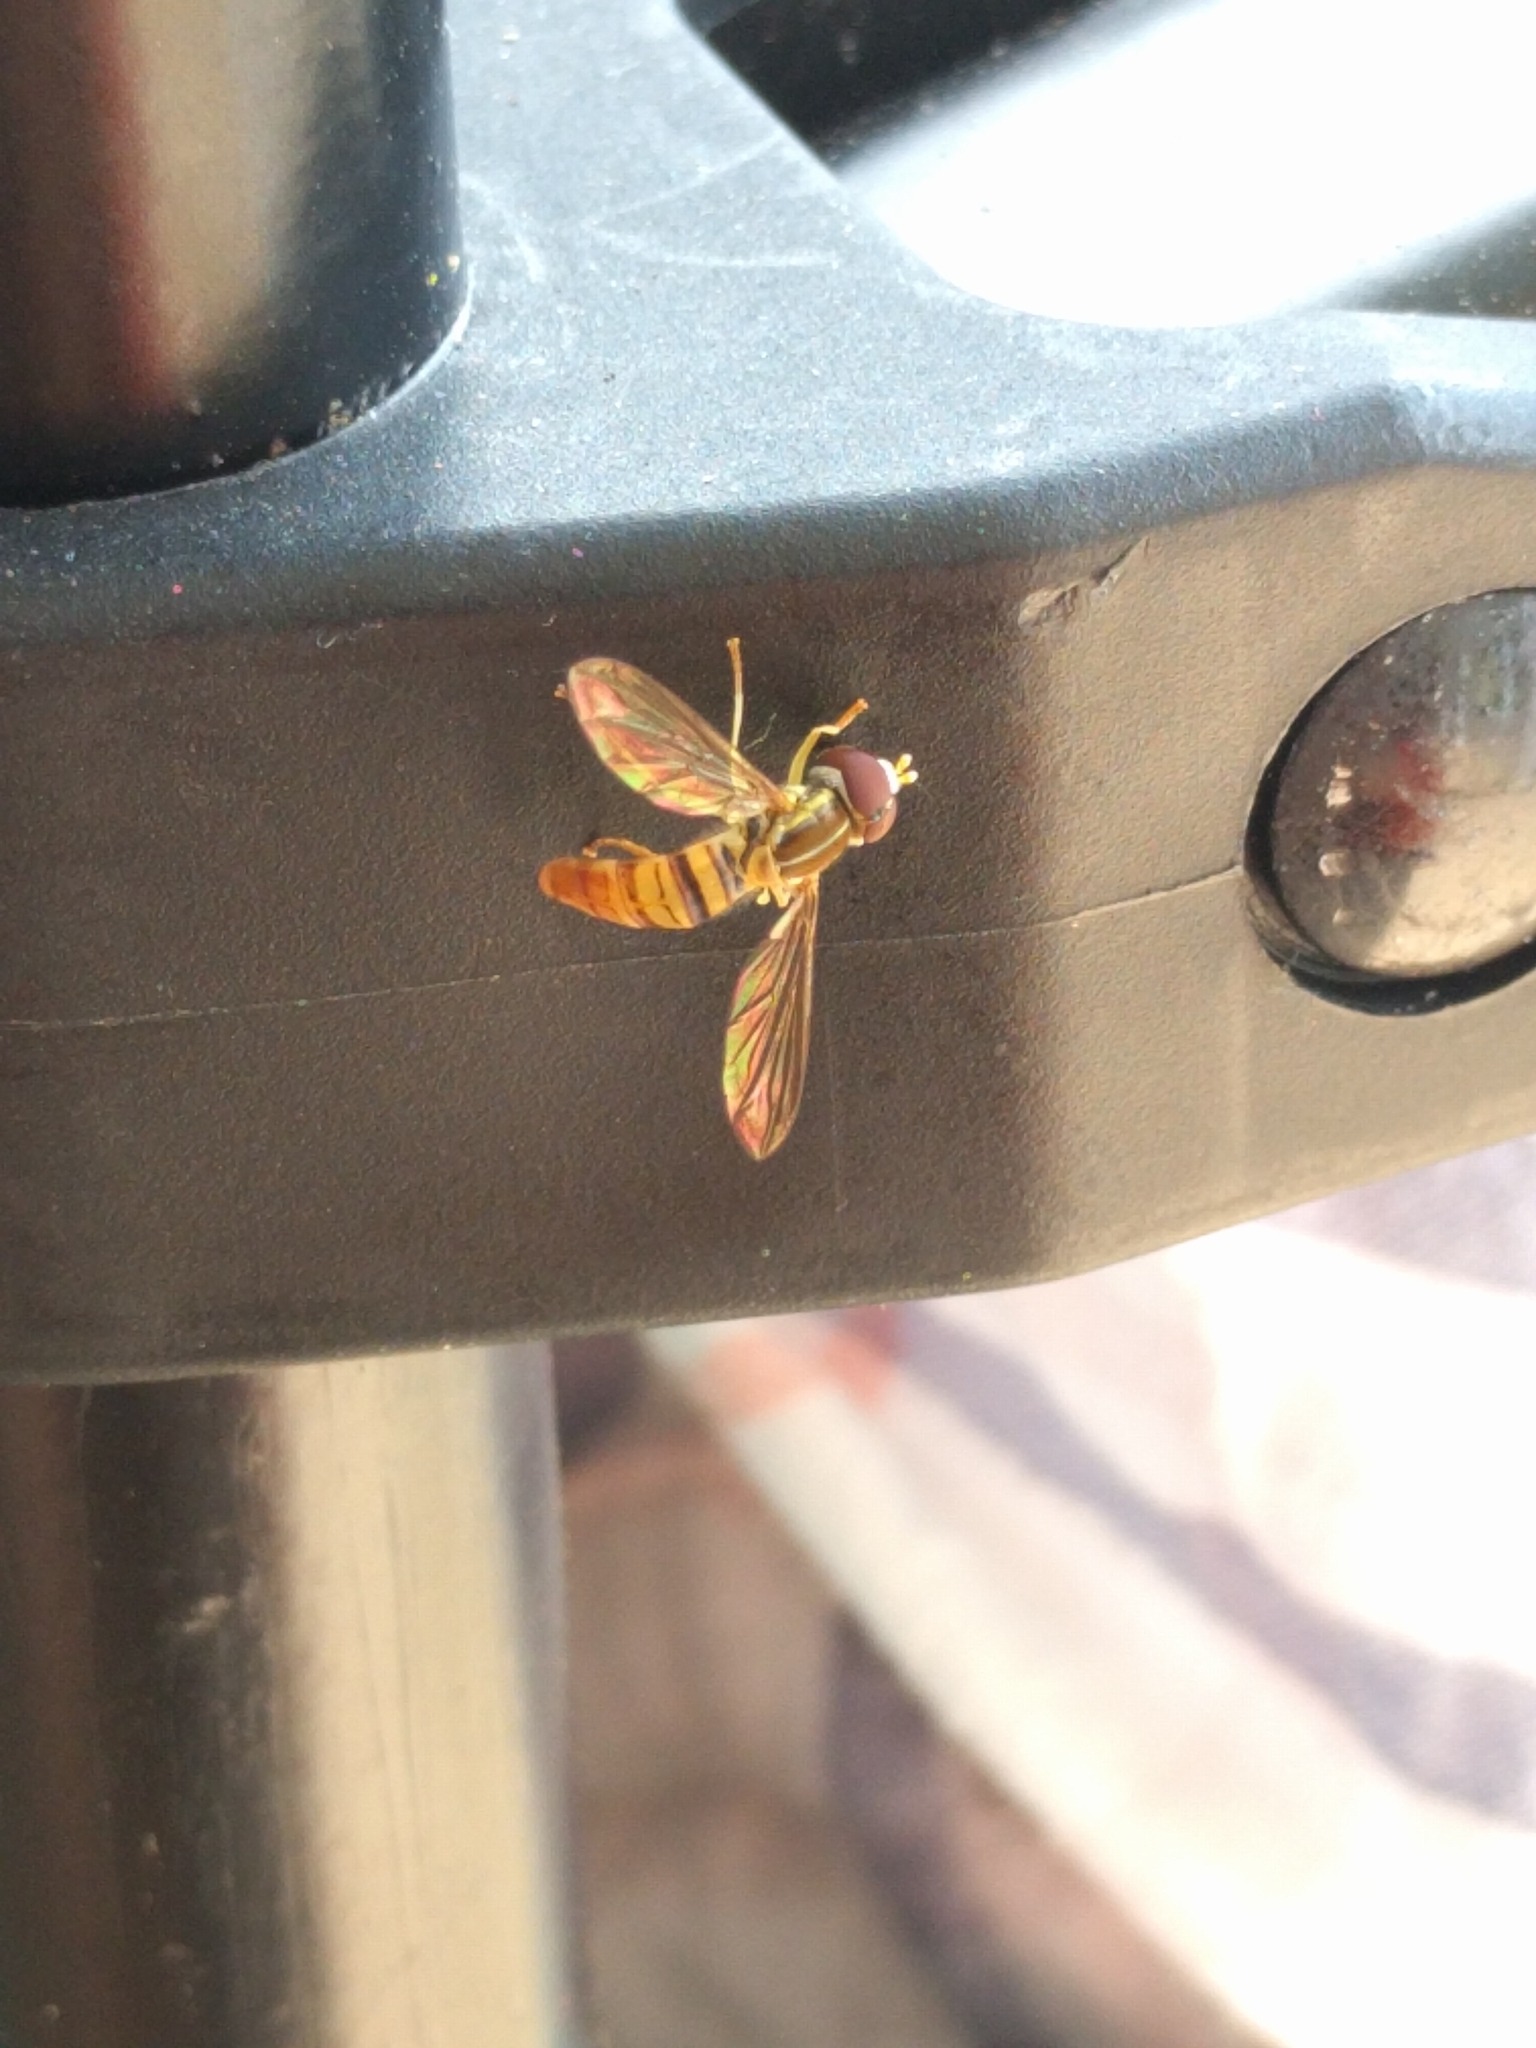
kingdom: Animalia
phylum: Arthropoda
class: Insecta
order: Diptera
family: Syrphidae
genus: Toxomerus
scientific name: Toxomerus politus
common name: Maize calligrapher
